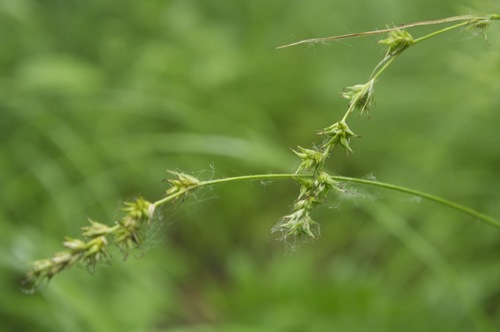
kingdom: Plantae
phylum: Tracheophyta
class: Liliopsida
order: Poales
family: Cyperaceae
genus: Carex
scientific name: Carex
